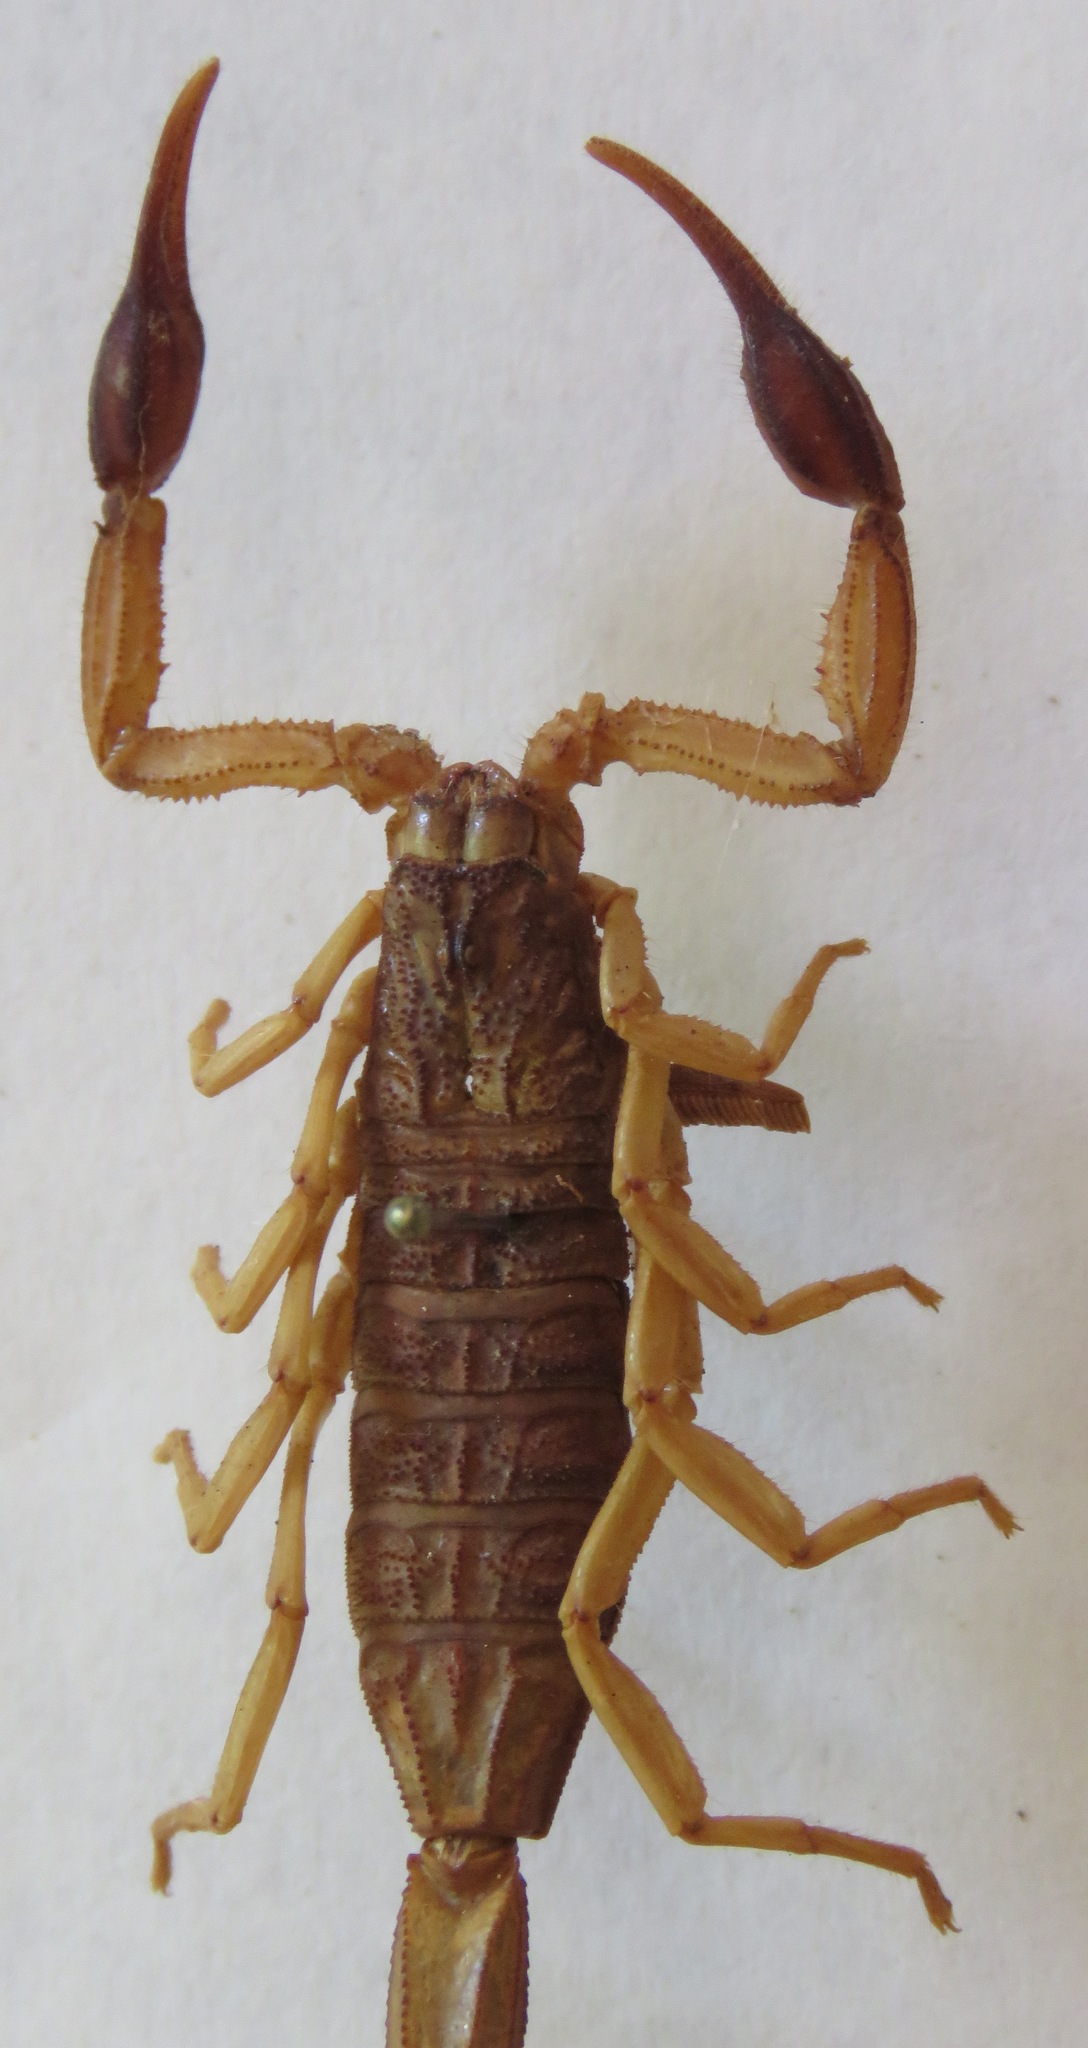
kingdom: Animalia
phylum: Arthropoda
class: Arachnida
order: Scorpiones
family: Buthidae
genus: Centruroides
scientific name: Centruroides edwardsii
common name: Scorpions
